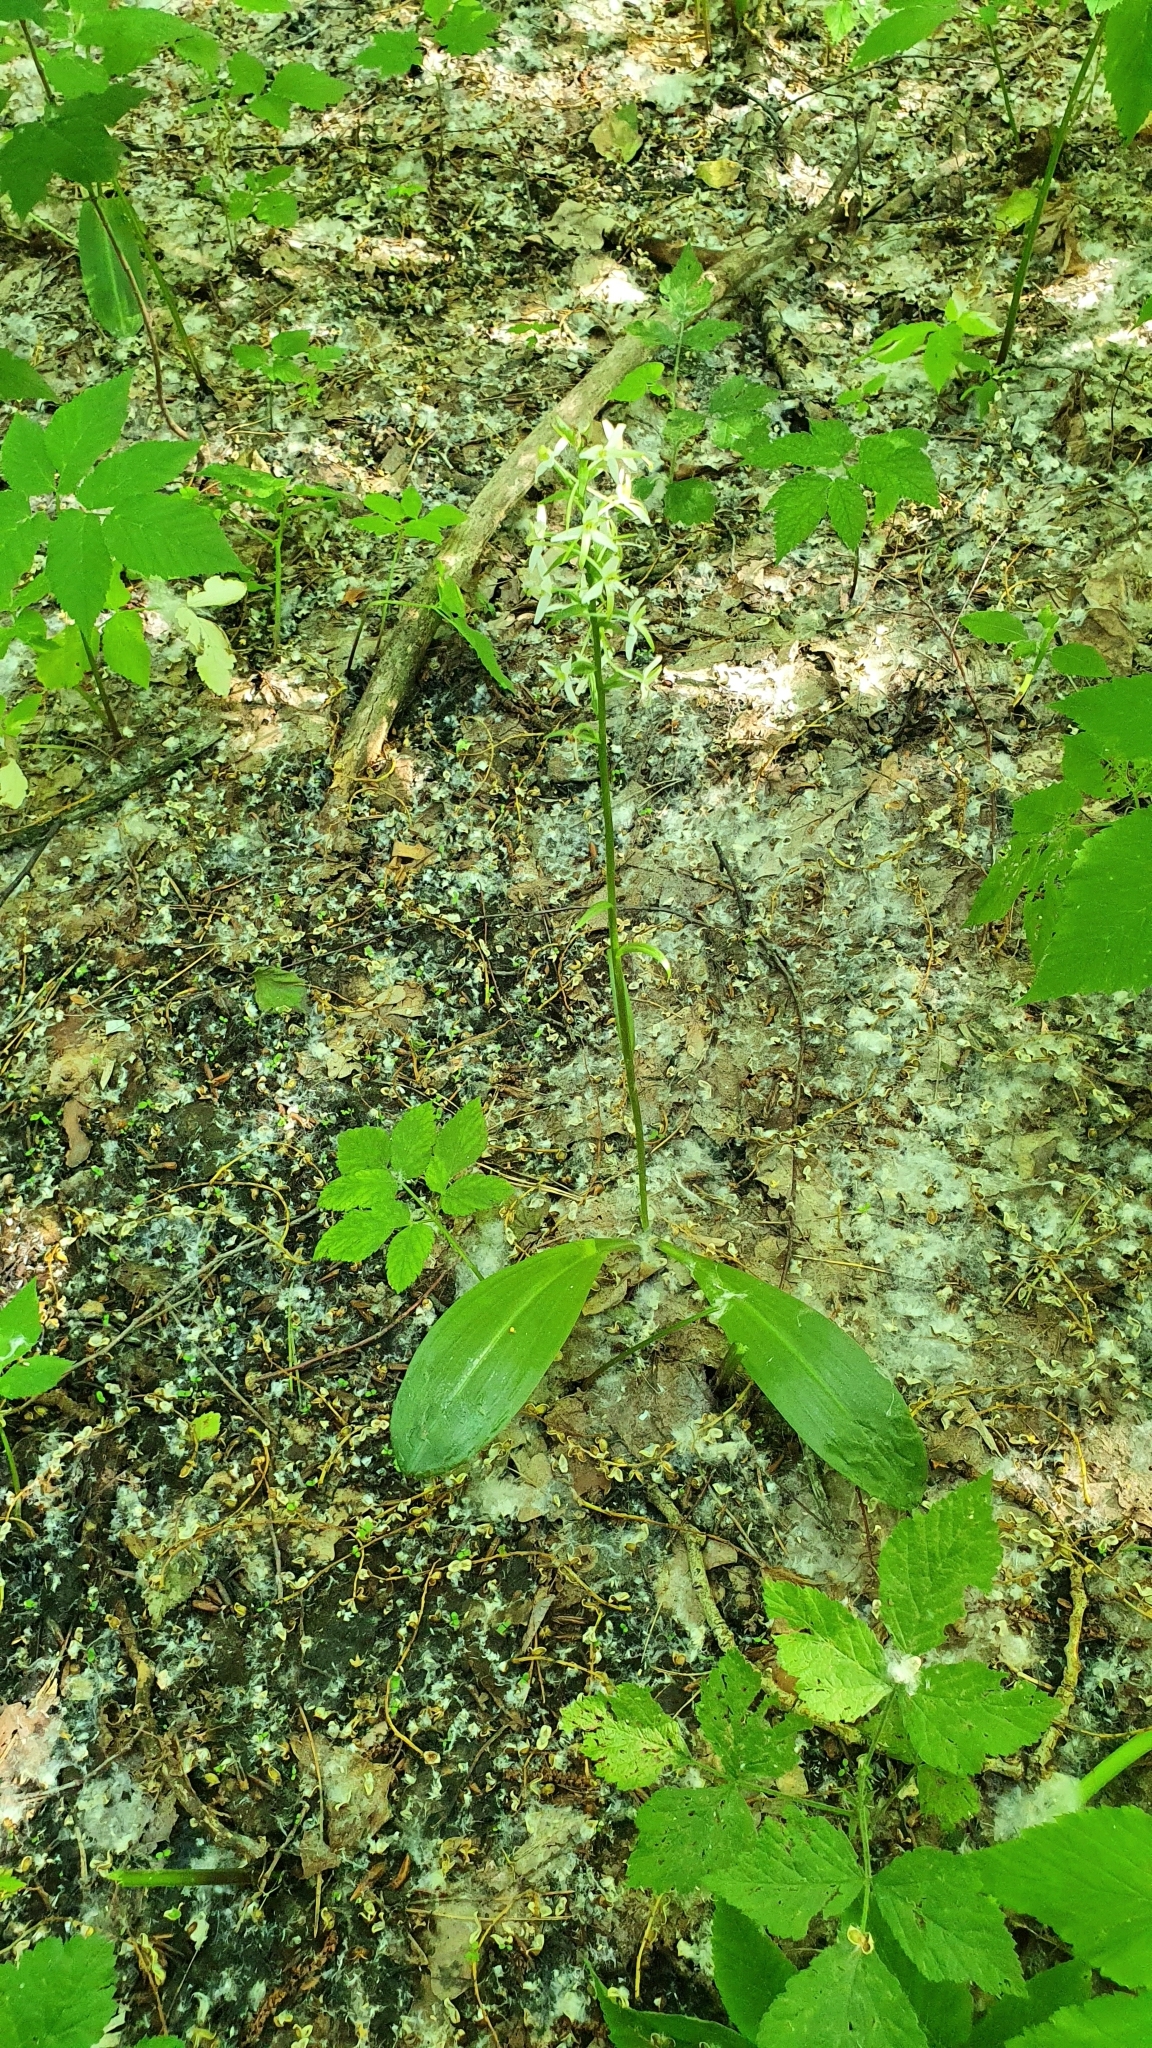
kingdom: Plantae
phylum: Tracheophyta
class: Liliopsida
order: Asparagales
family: Orchidaceae
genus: Platanthera
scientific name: Platanthera bifolia
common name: Lesser butterfly-orchid
